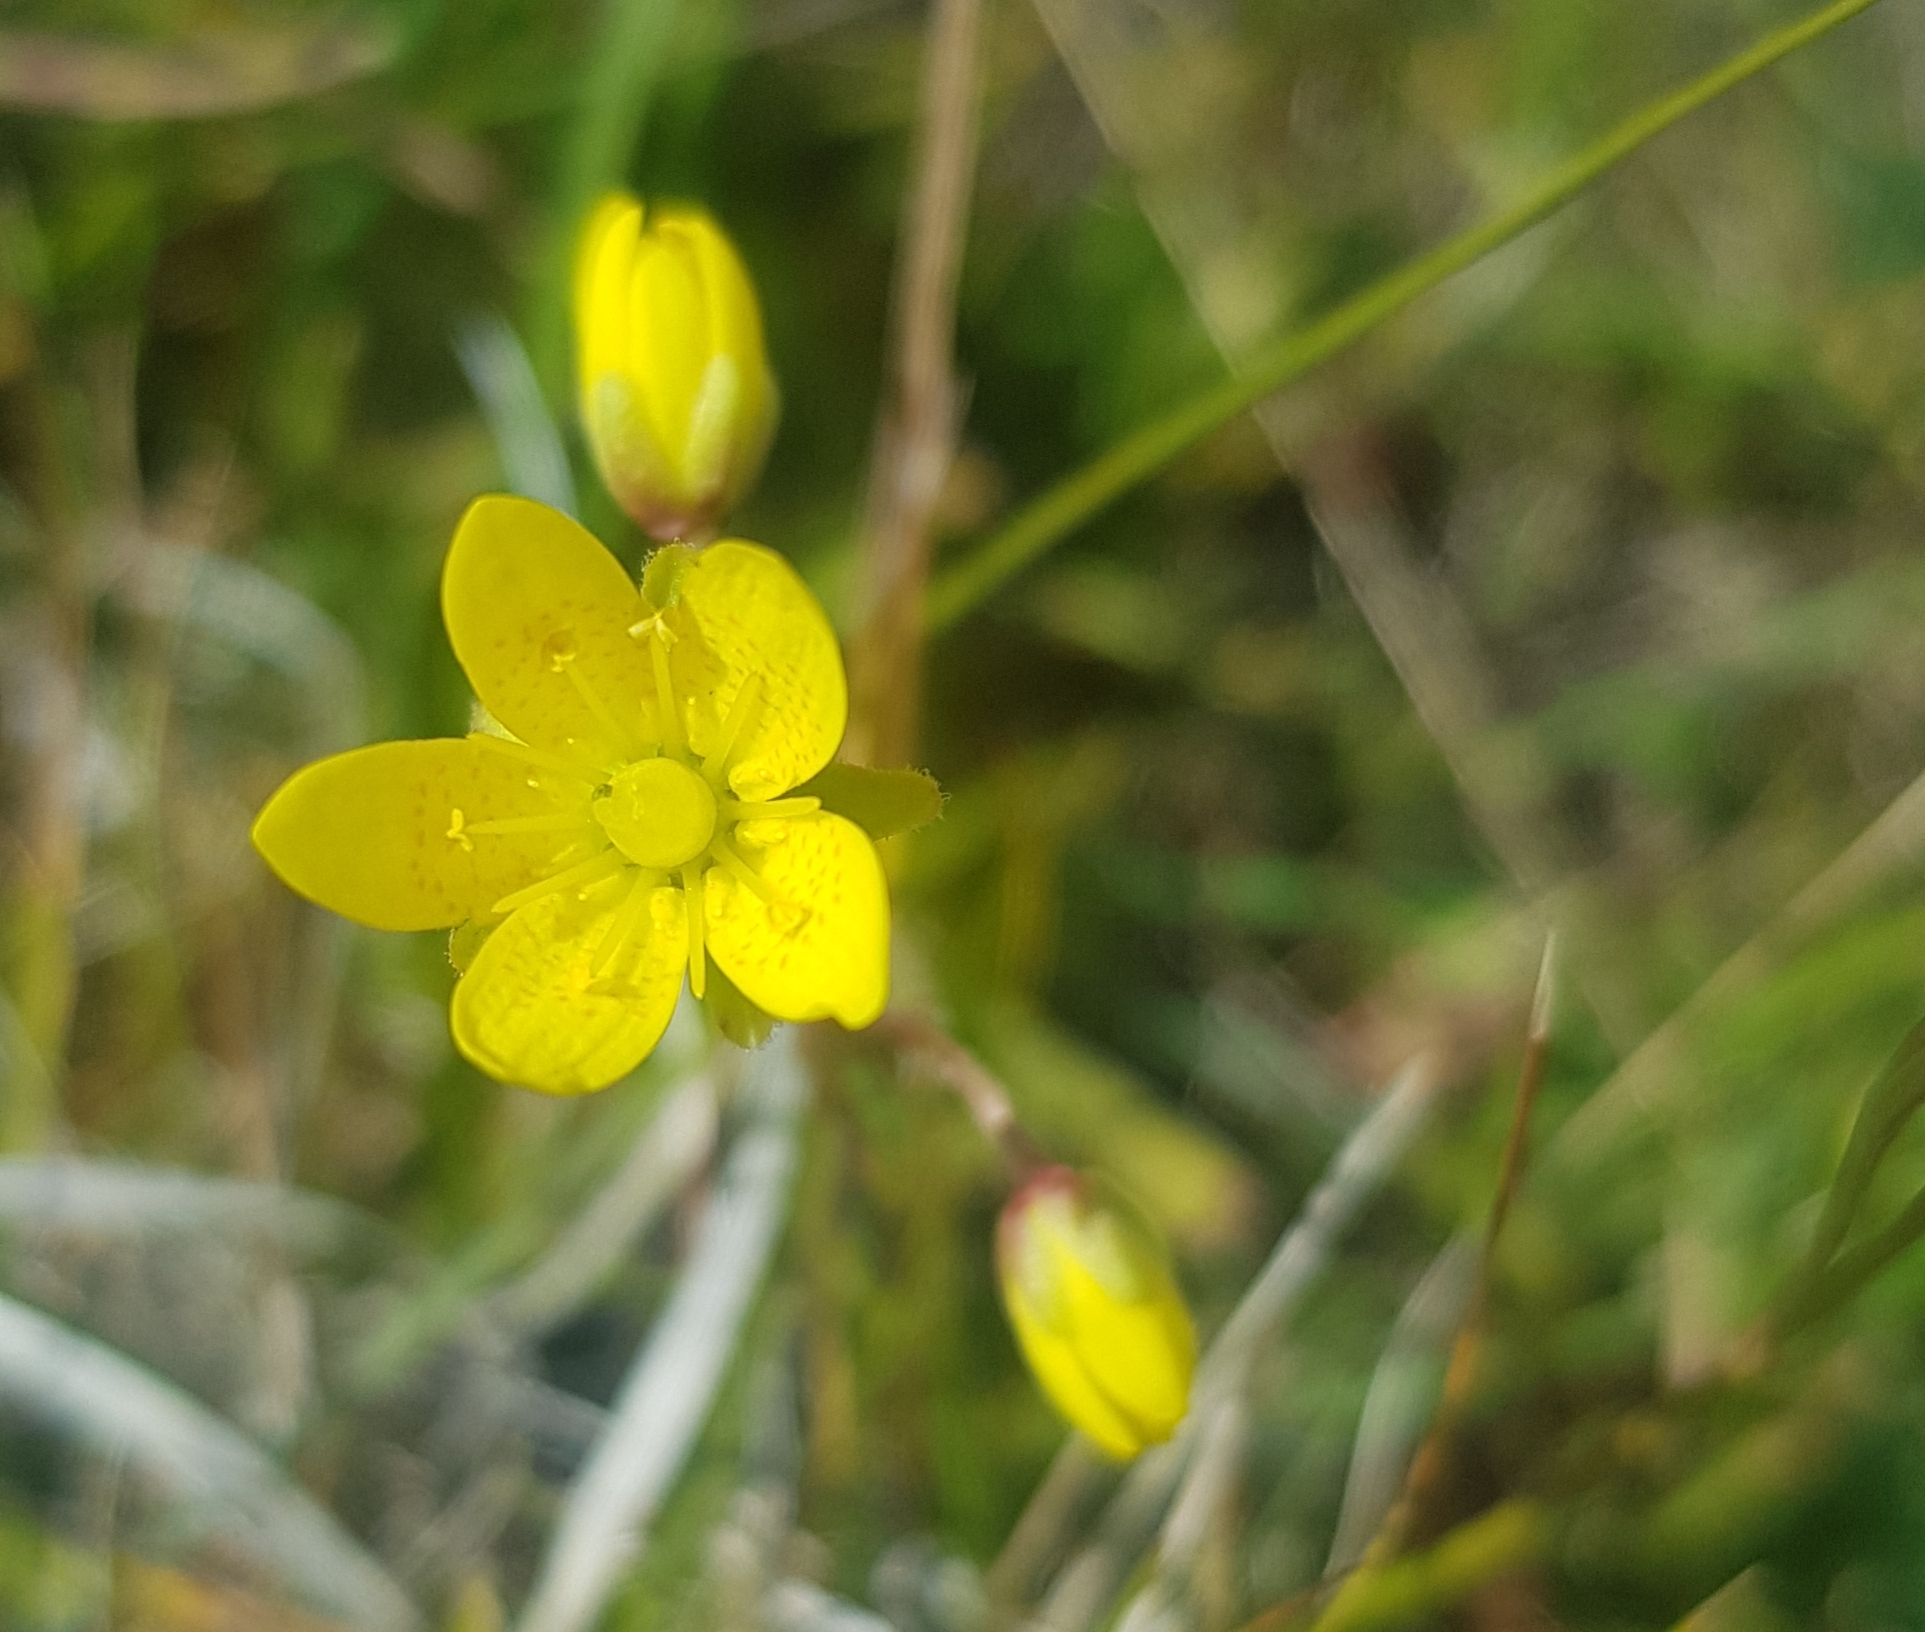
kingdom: Plantae
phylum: Tracheophyta
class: Magnoliopsida
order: Saxifragales
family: Saxifragaceae
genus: Saxifraga
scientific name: Saxifraga hirculus
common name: Yellow marsh saxifrage
